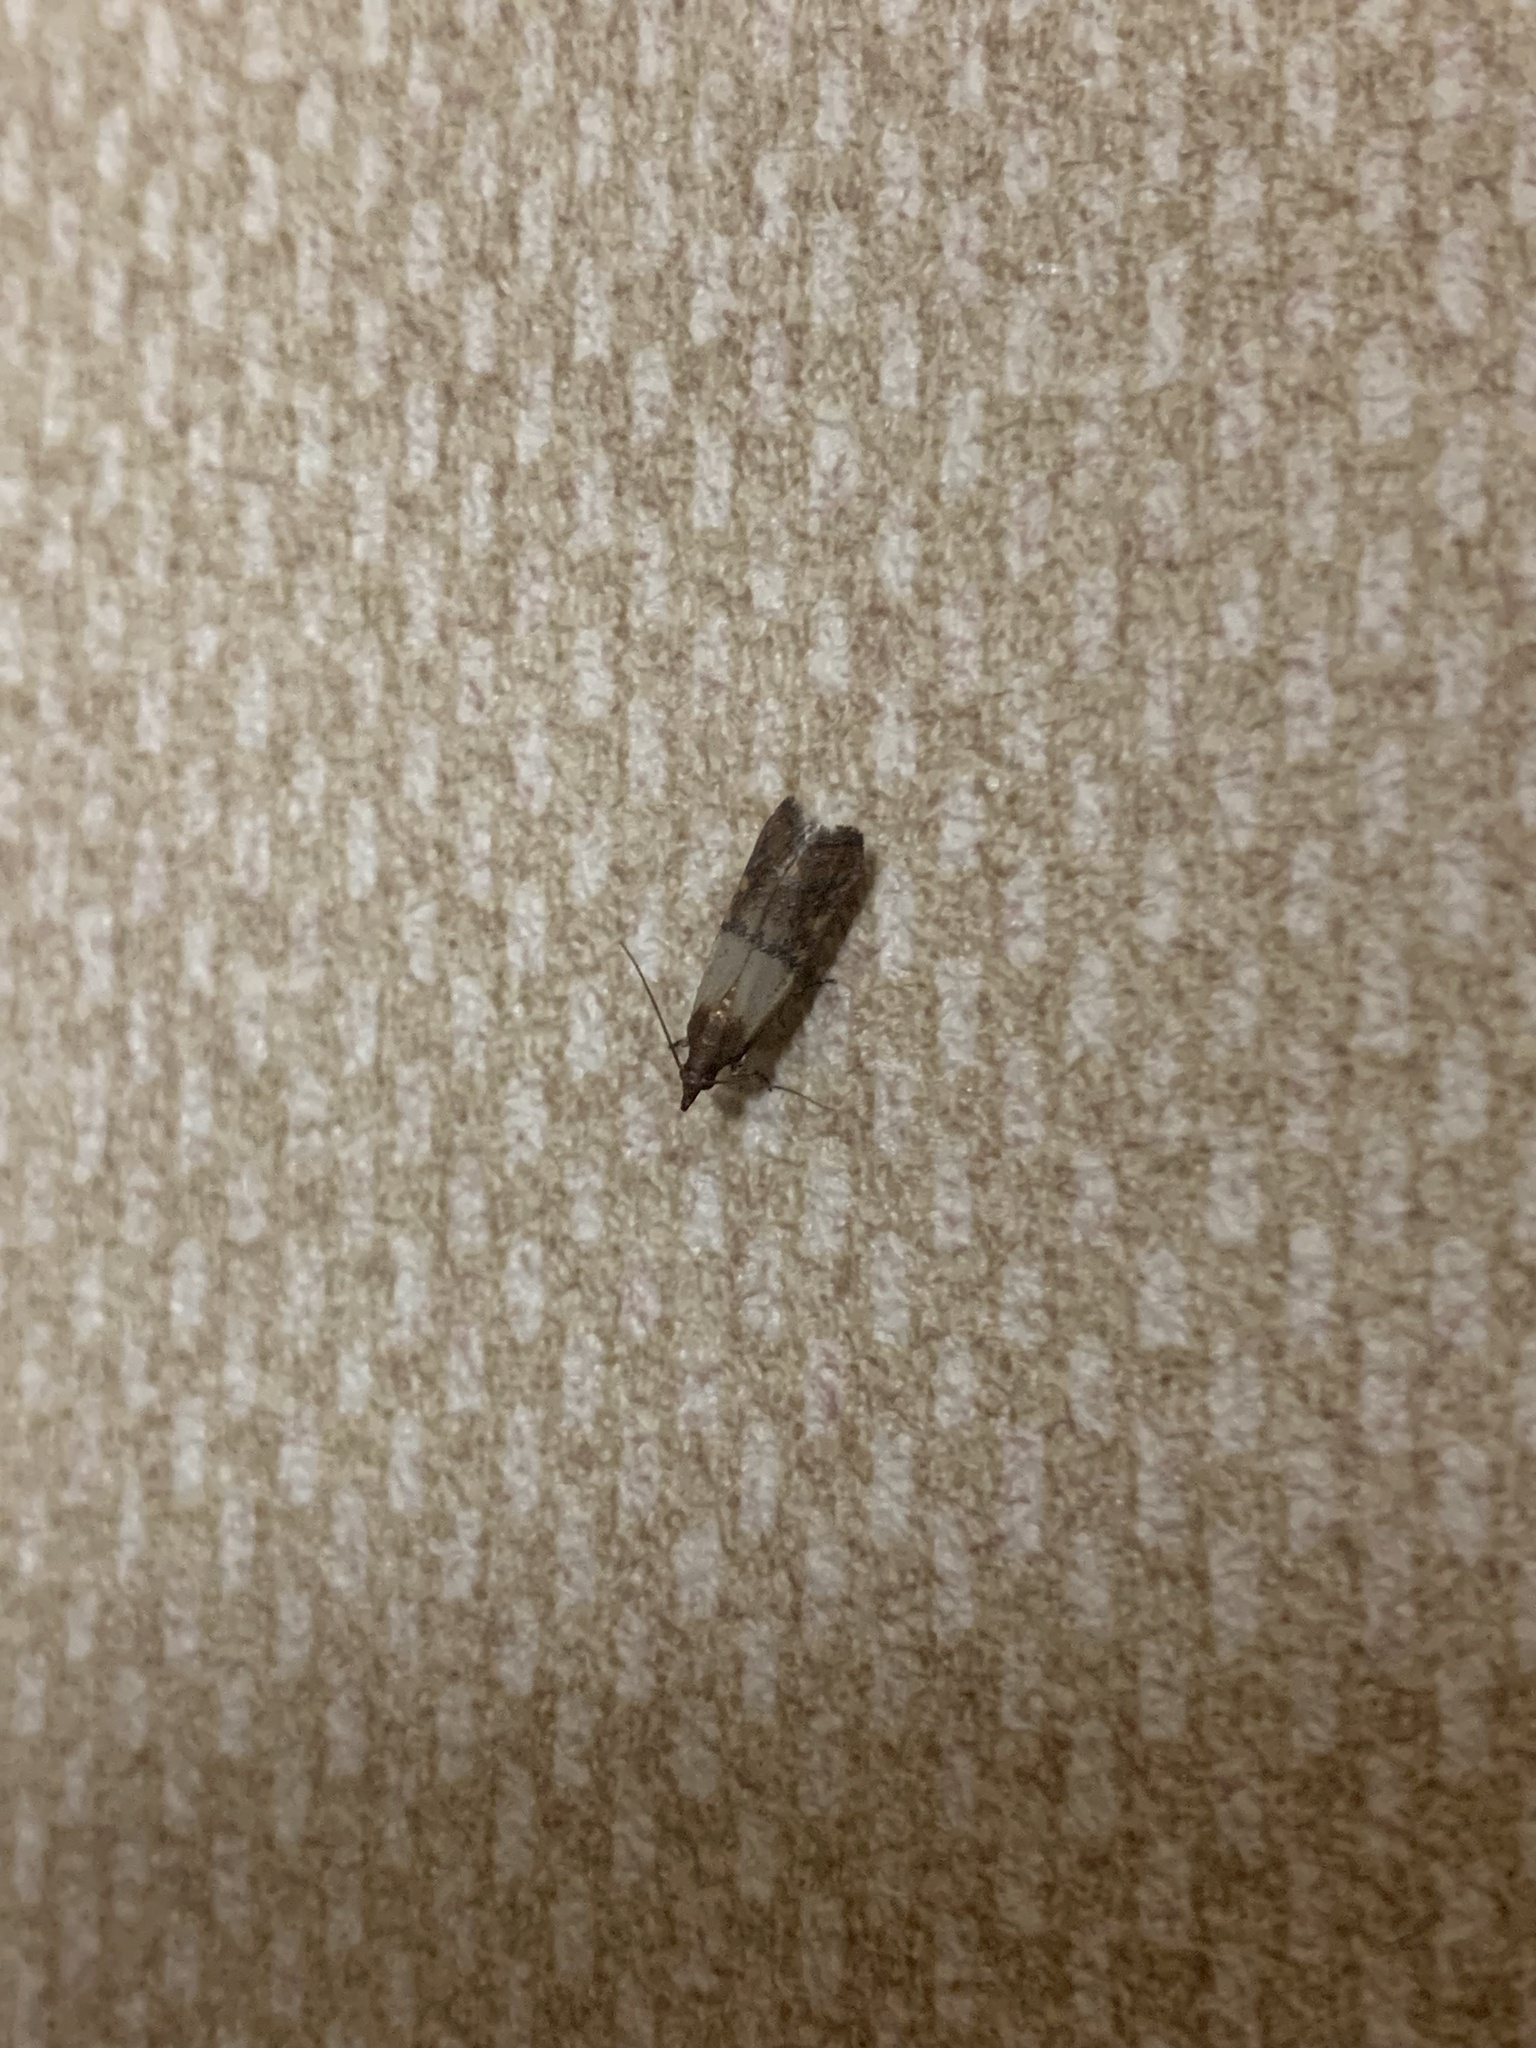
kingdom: Animalia
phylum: Arthropoda
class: Insecta
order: Lepidoptera
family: Pyralidae
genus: Plodia
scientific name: Plodia interpunctella
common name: Indian meal moth
